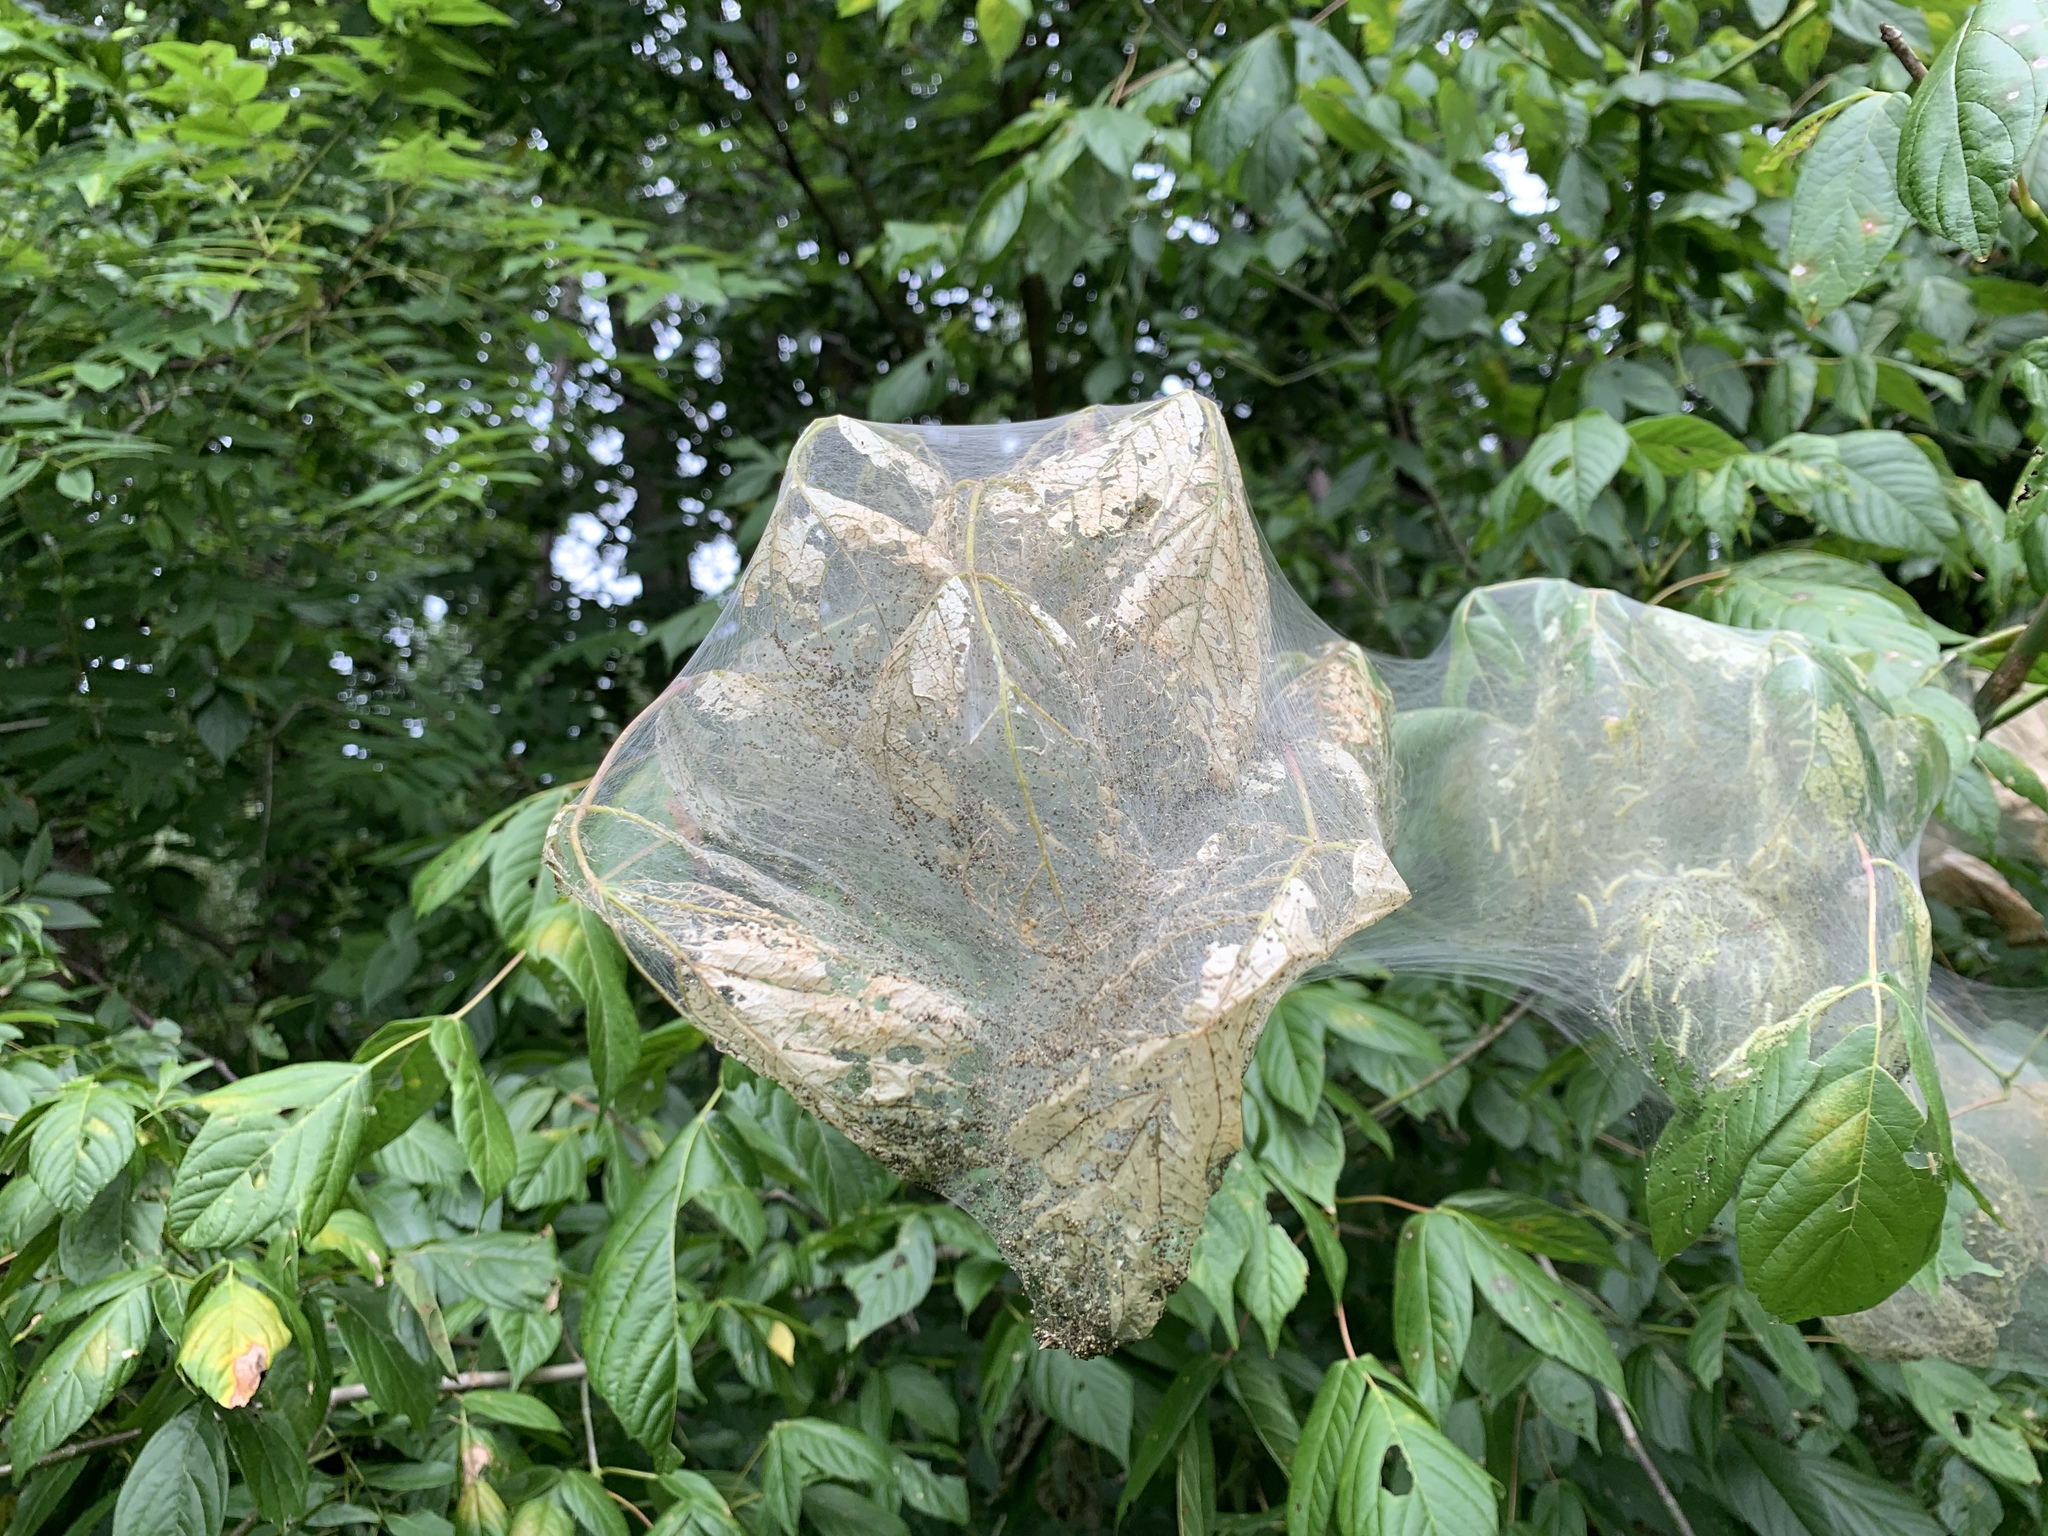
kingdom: Animalia
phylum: Arthropoda
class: Insecta
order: Lepidoptera
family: Erebidae
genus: Hyphantria
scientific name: Hyphantria cunea
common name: American white moth
